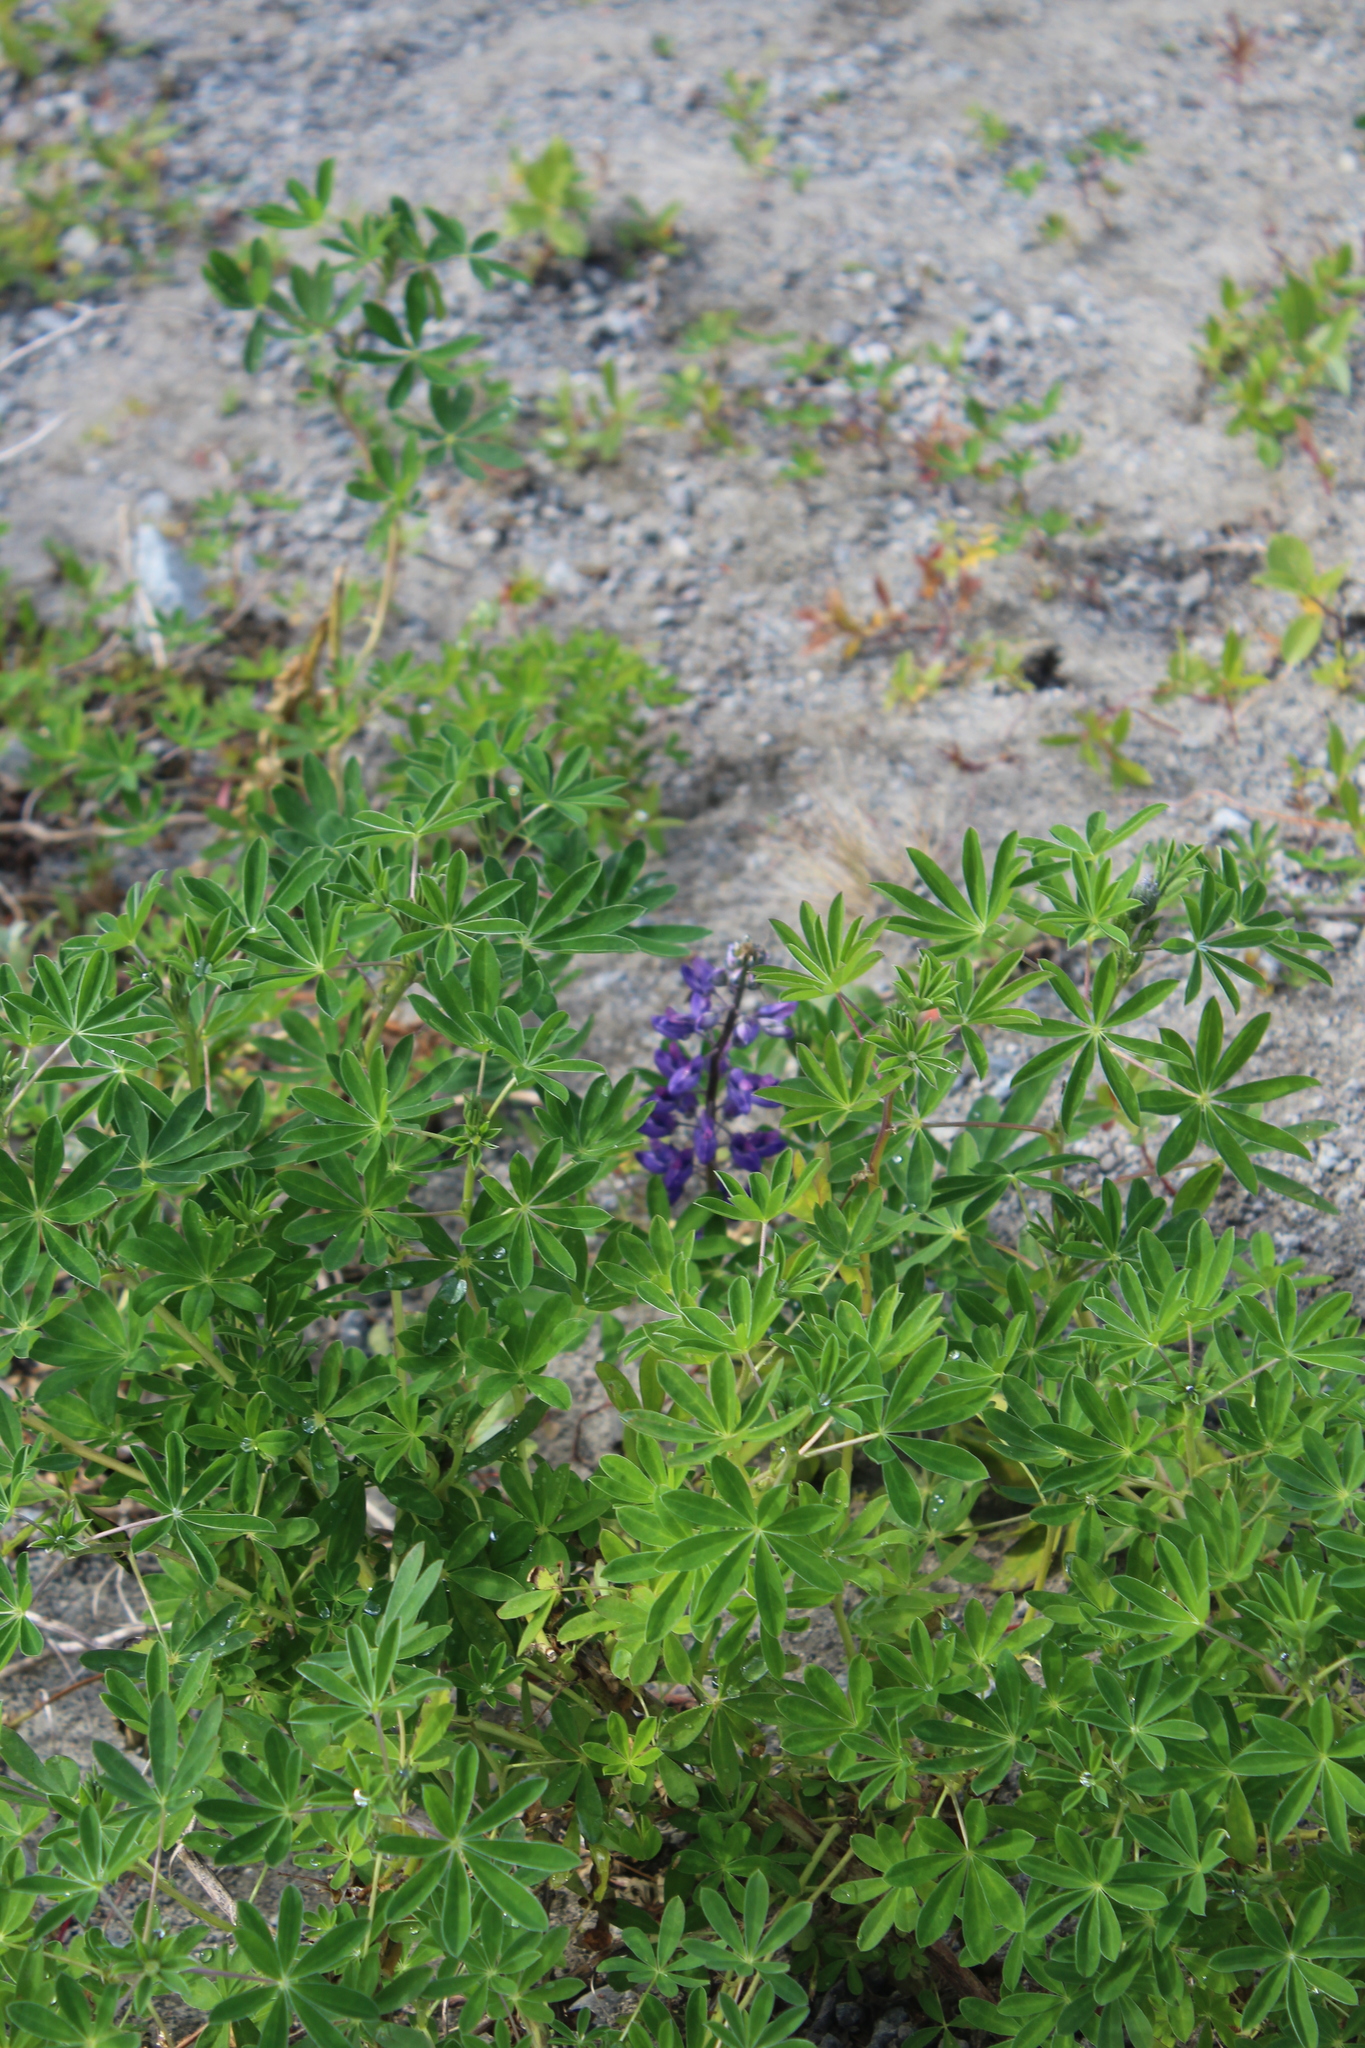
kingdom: Plantae
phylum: Tracheophyta
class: Magnoliopsida
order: Fabales
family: Fabaceae
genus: Lupinus
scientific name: Lupinus nootkatensis
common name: Nootka lupine
